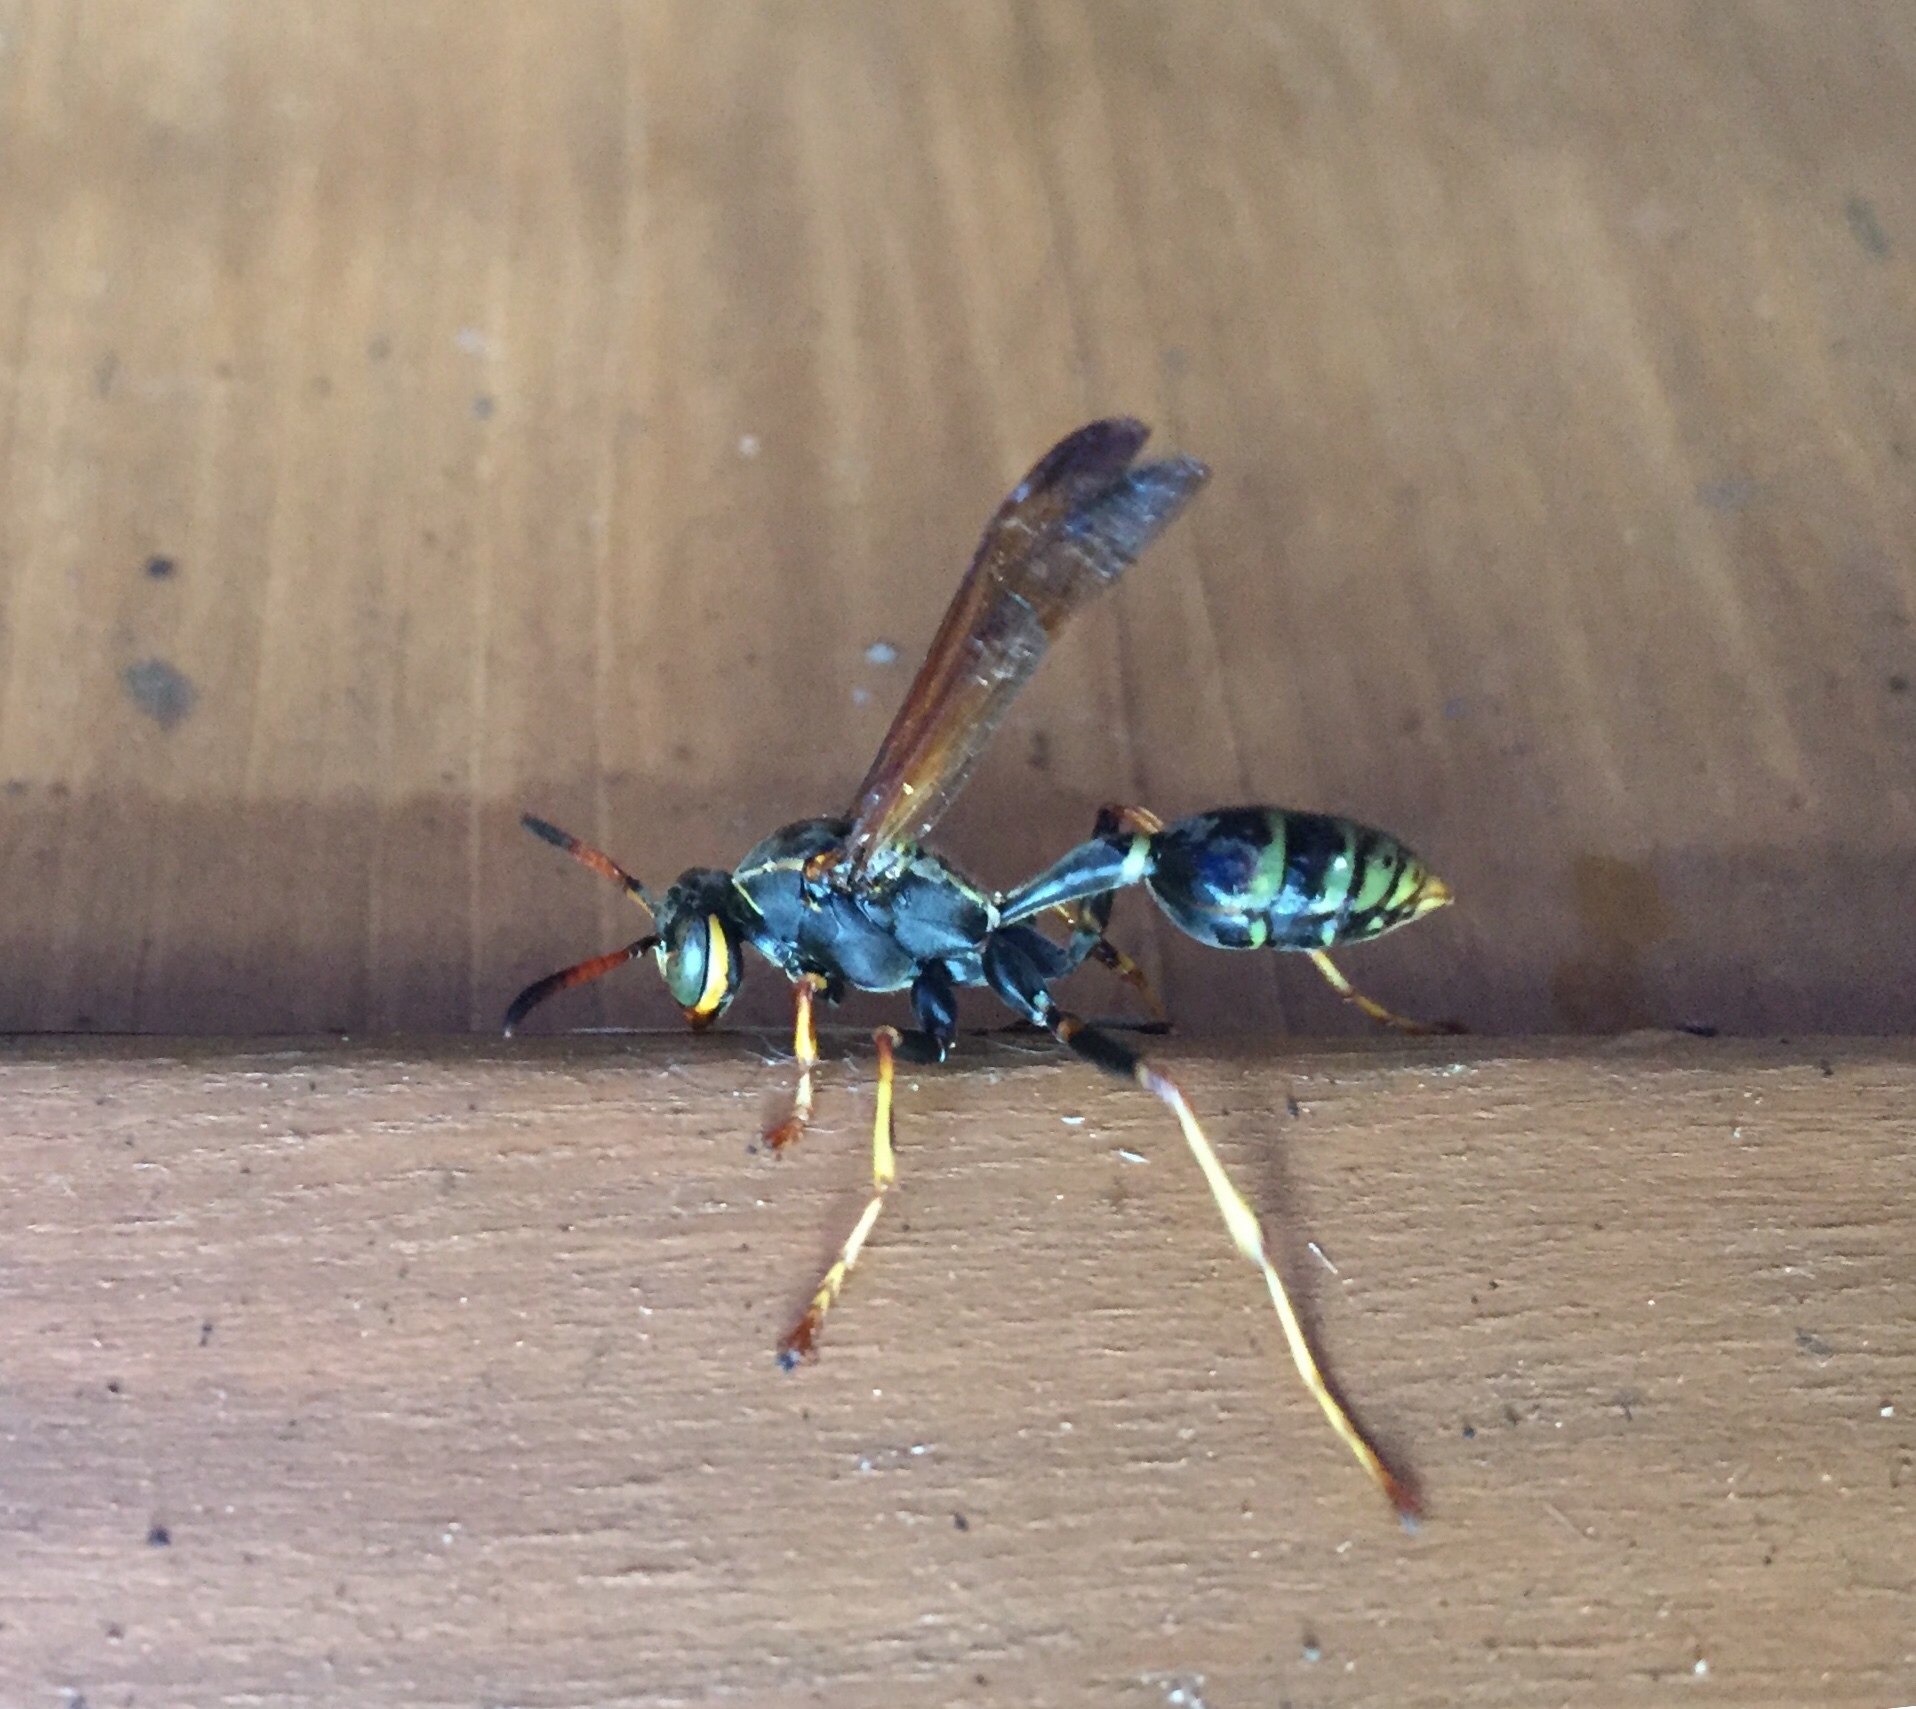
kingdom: Animalia
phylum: Arthropoda
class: Insecta
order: Hymenoptera
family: Vespidae
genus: Mischocyttarus
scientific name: Mischocyttarus flavitarsis
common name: Wasp
